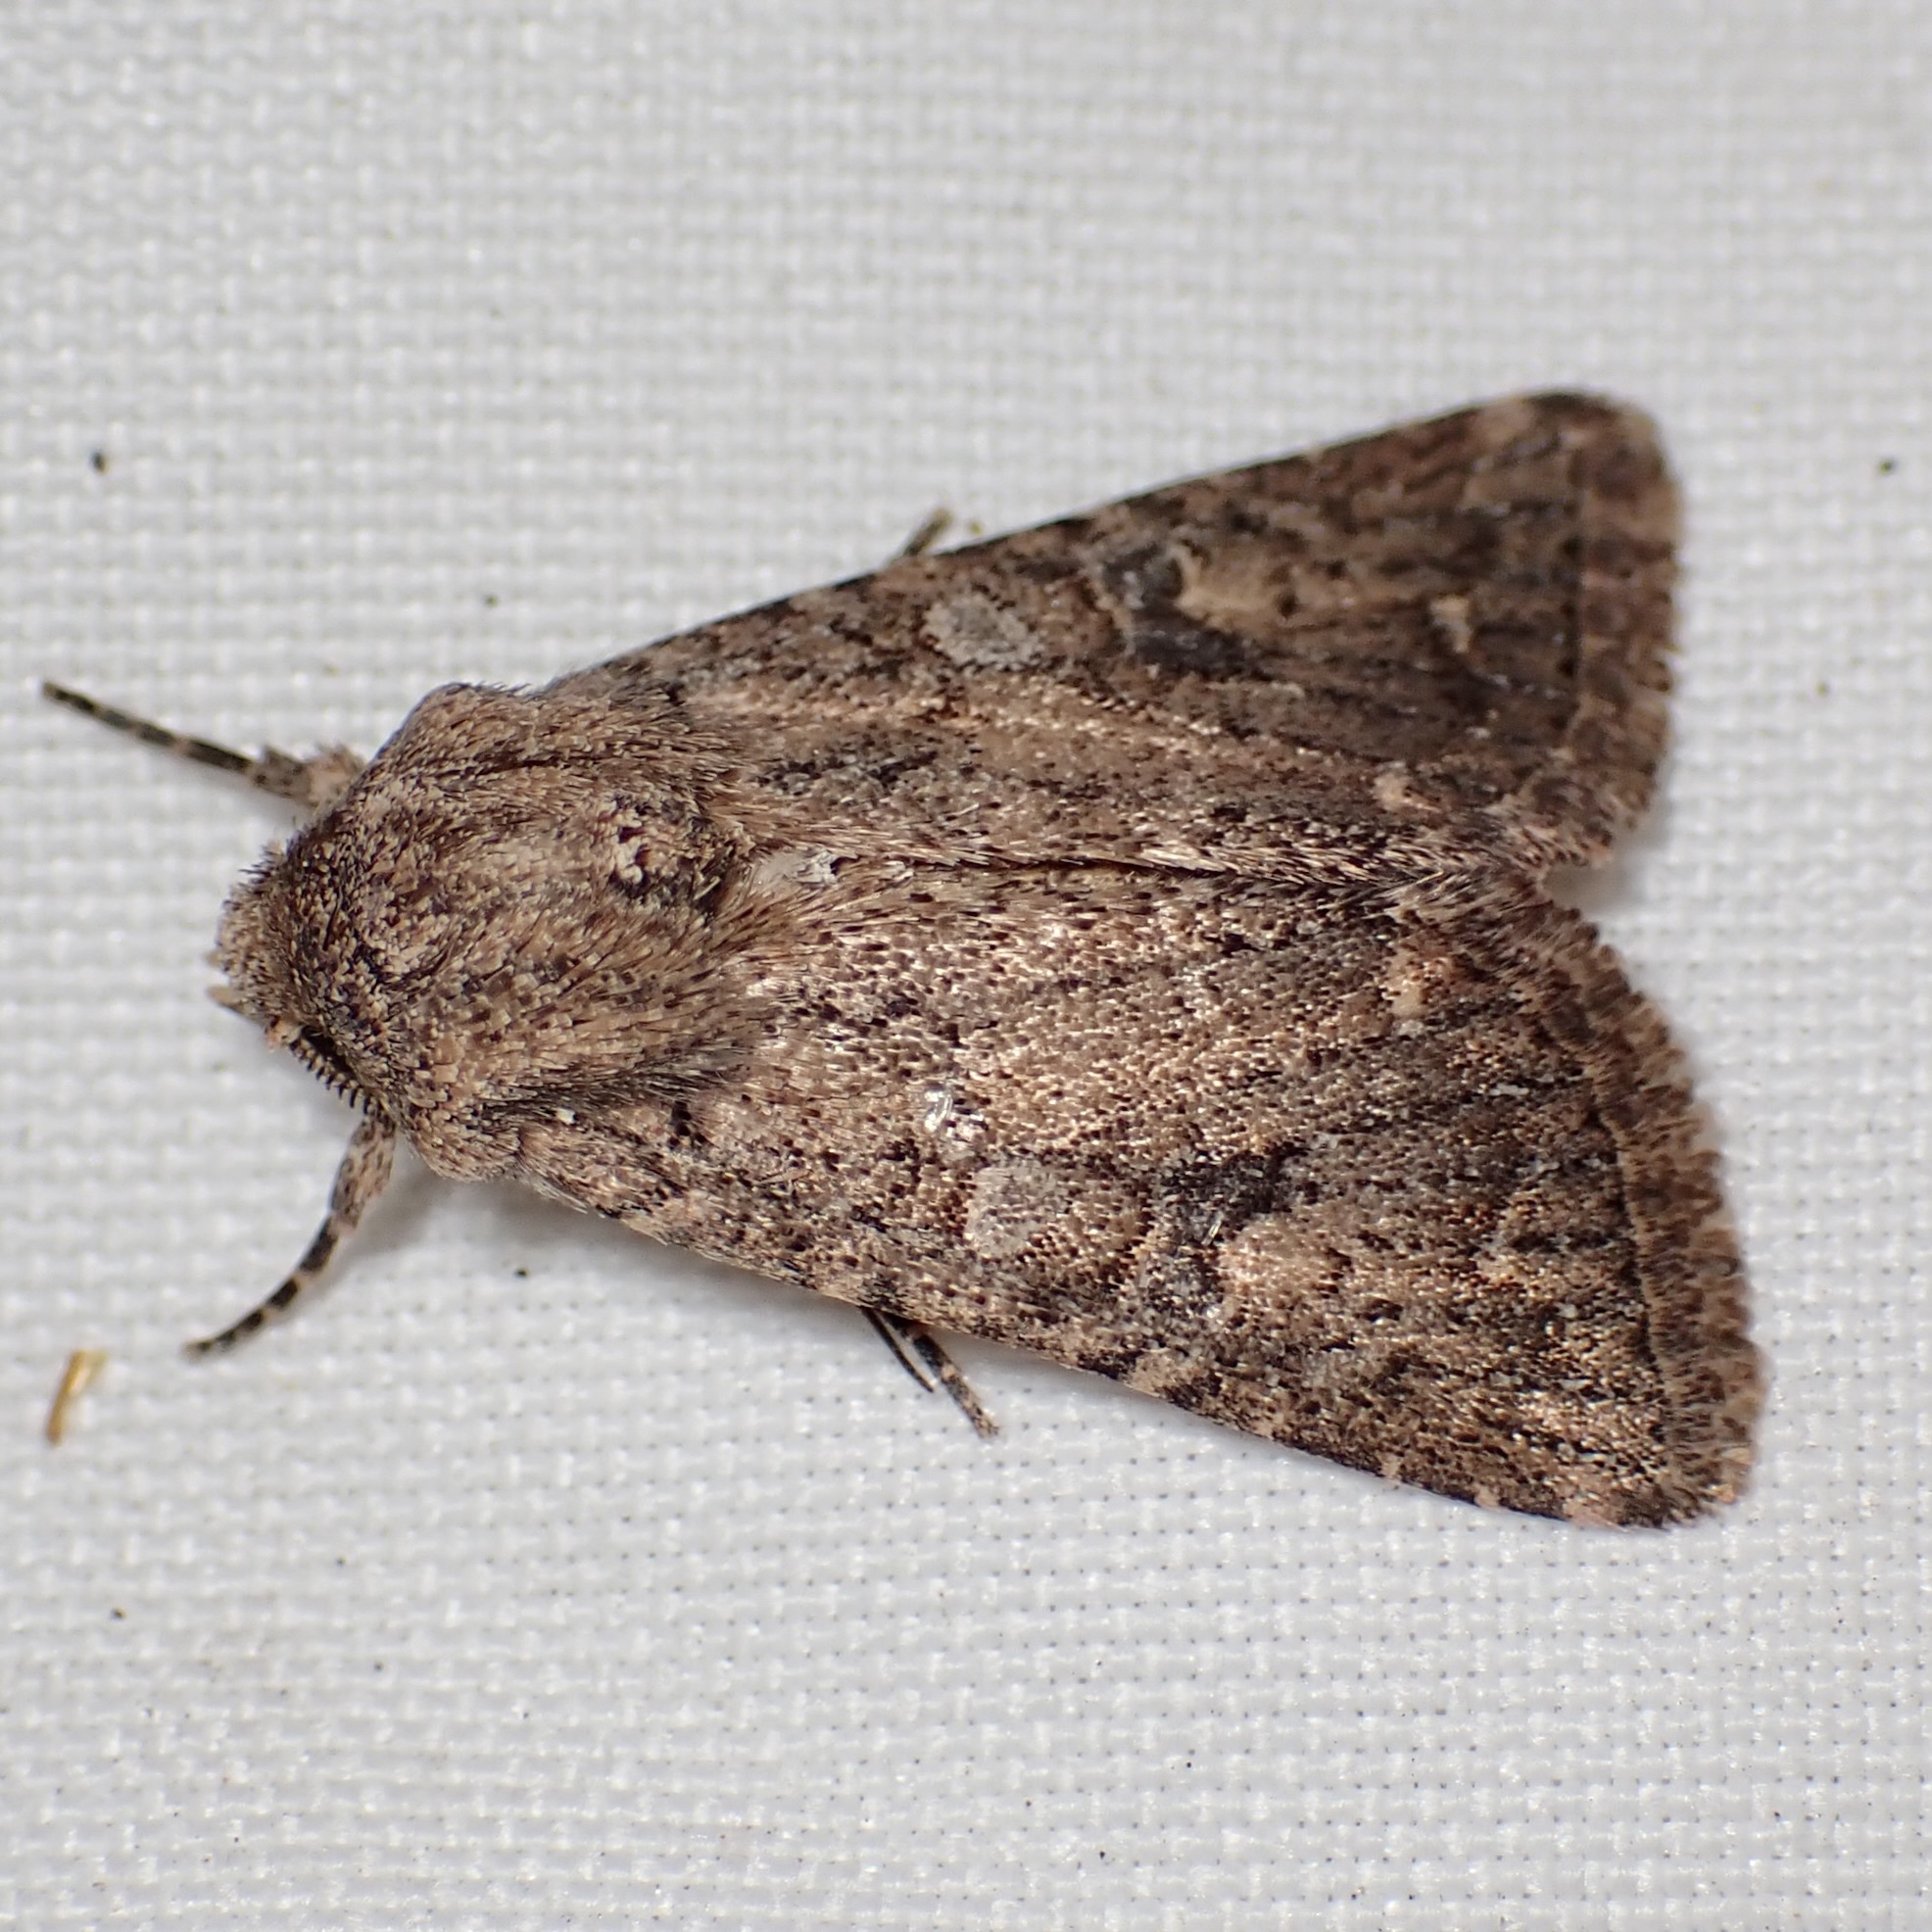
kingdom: Animalia
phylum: Arthropoda
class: Insecta
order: Lepidoptera
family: Noctuidae
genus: Trichopolia
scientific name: Trichopolia
